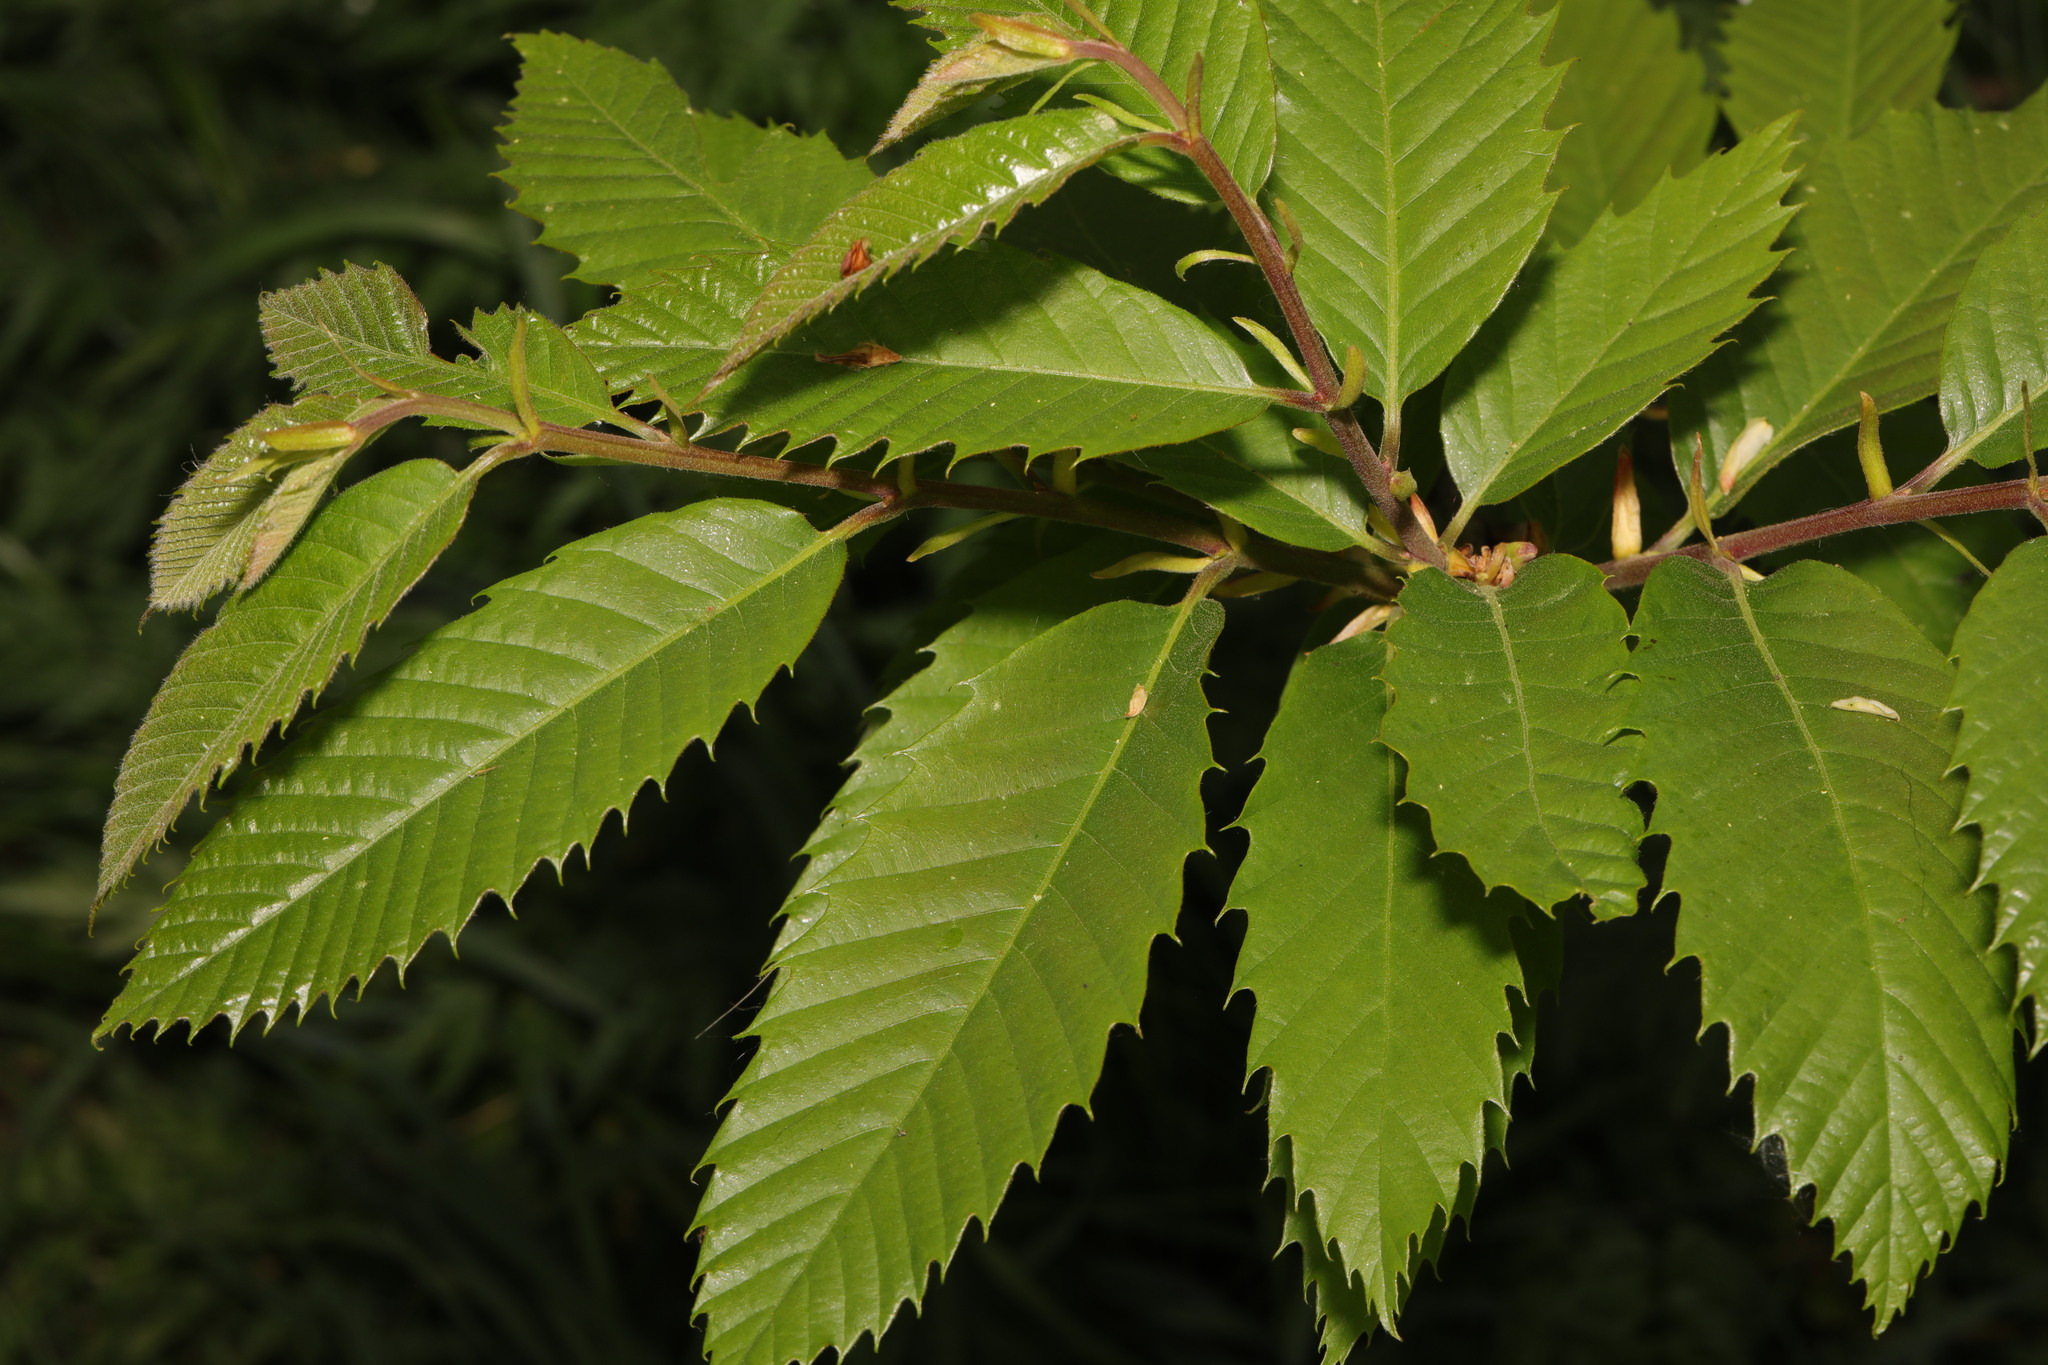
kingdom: Plantae
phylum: Tracheophyta
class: Magnoliopsida
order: Fagales
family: Fagaceae
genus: Castanea
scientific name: Castanea sativa
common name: Sweet chestnut
